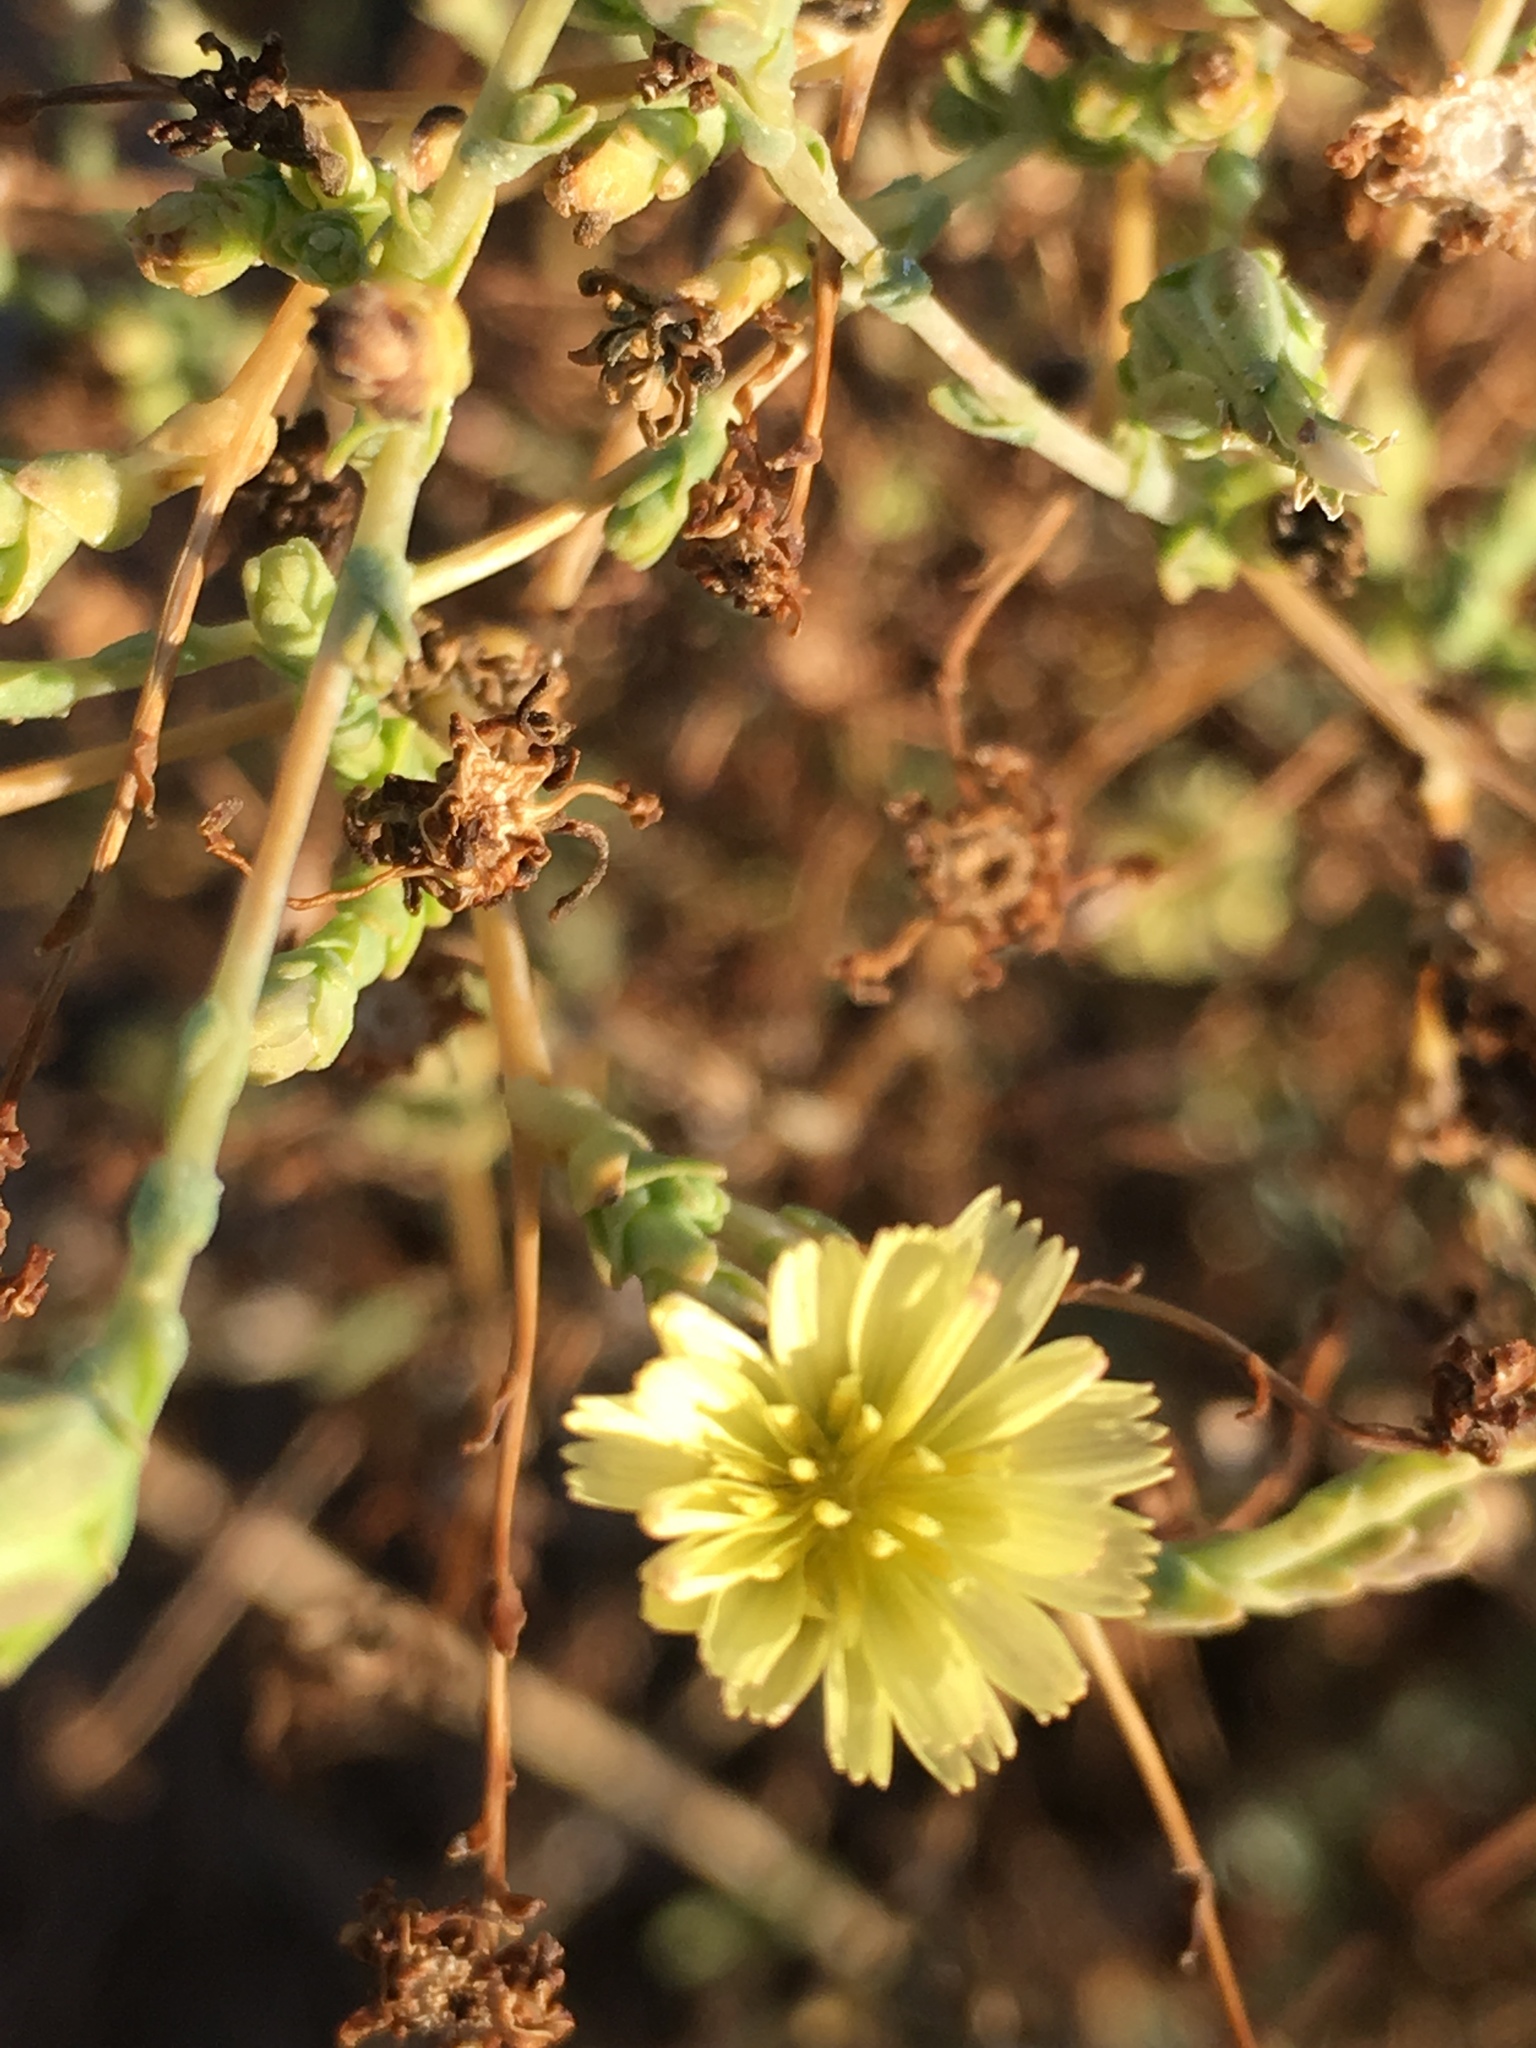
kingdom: Plantae
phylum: Tracheophyta
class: Magnoliopsida
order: Asterales
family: Asteraceae
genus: Lactuca
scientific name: Lactuca serriola
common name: Prickly lettuce
